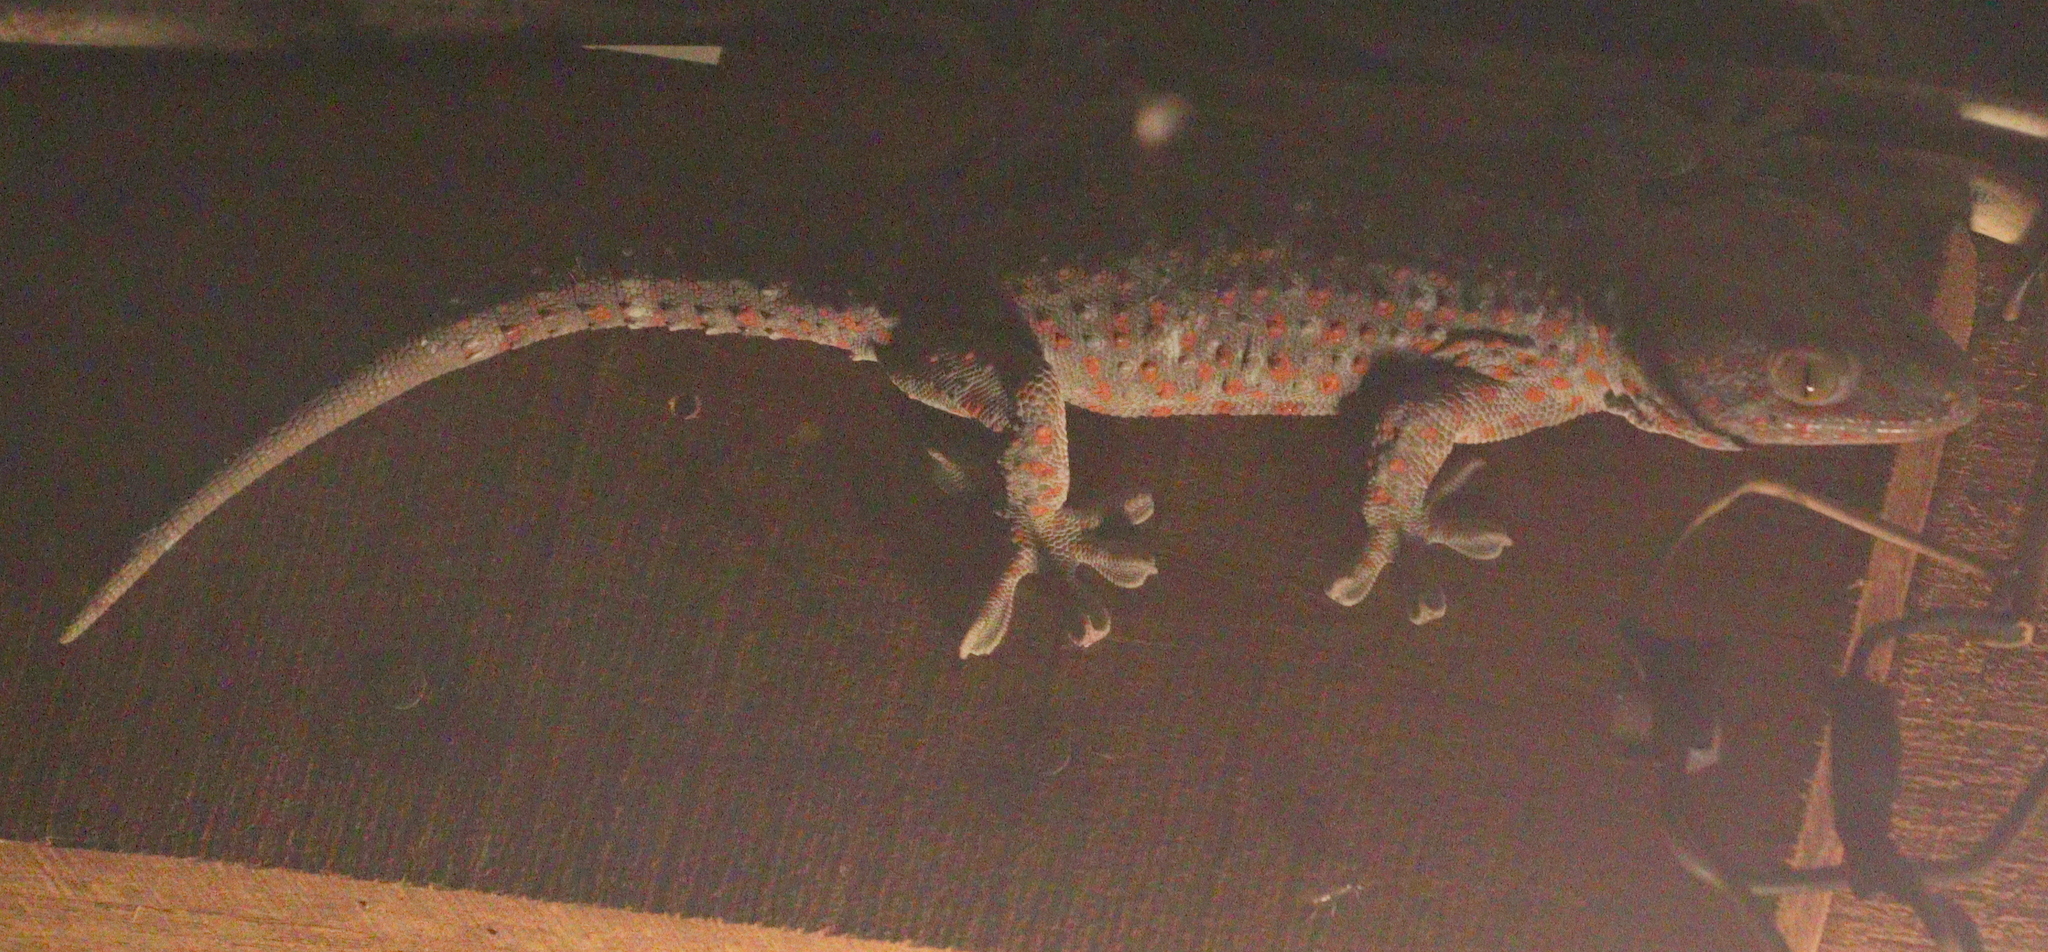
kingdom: Animalia
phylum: Chordata
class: Squamata
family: Gekkonidae
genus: Gekko
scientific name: Gekko gecko
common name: Tokay gecko
